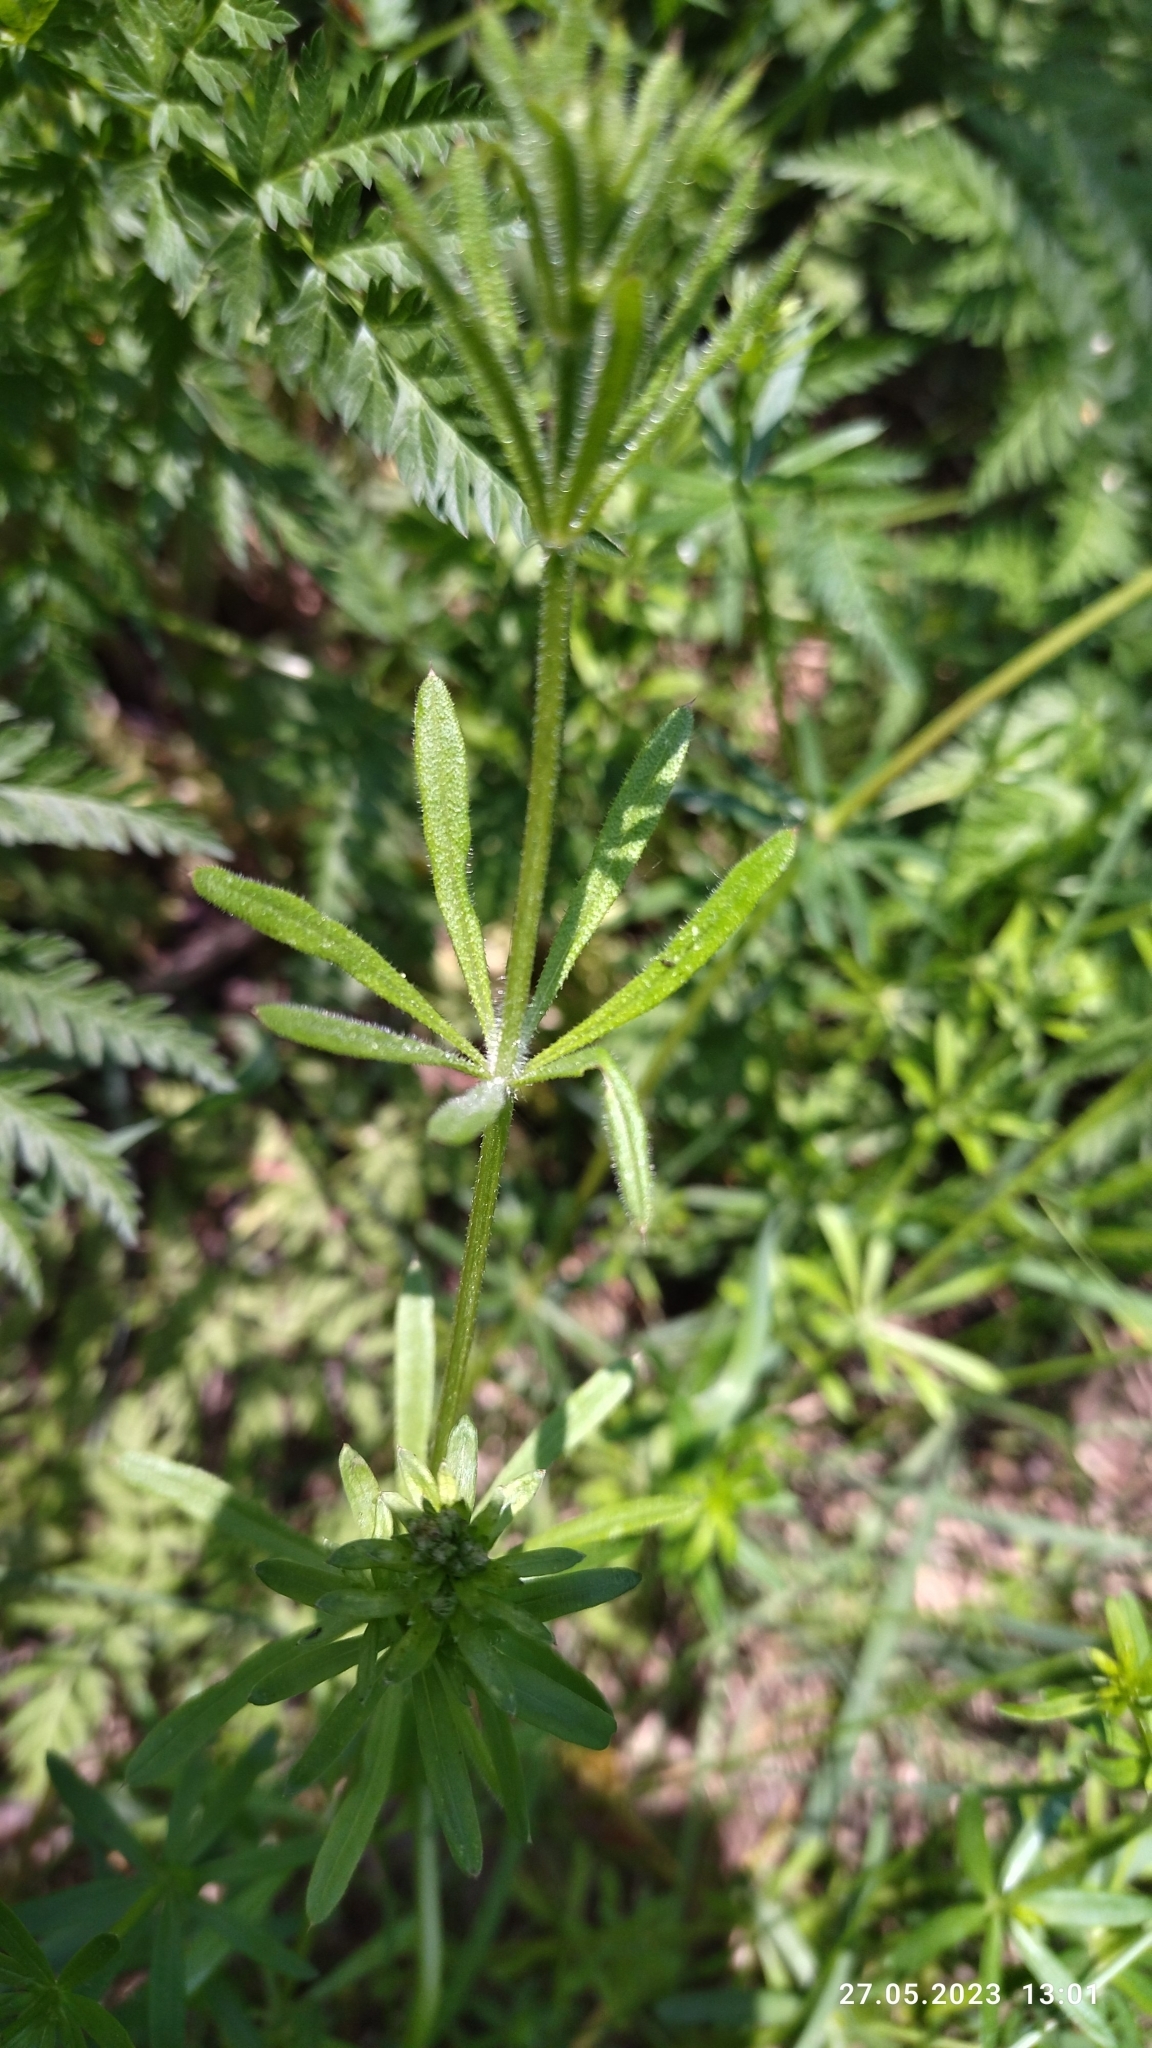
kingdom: Plantae
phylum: Tracheophyta
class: Magnoliopsida
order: Gentianales
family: Rubiaceae
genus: Galium
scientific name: Galium mollugo
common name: Hedge bedstraw
